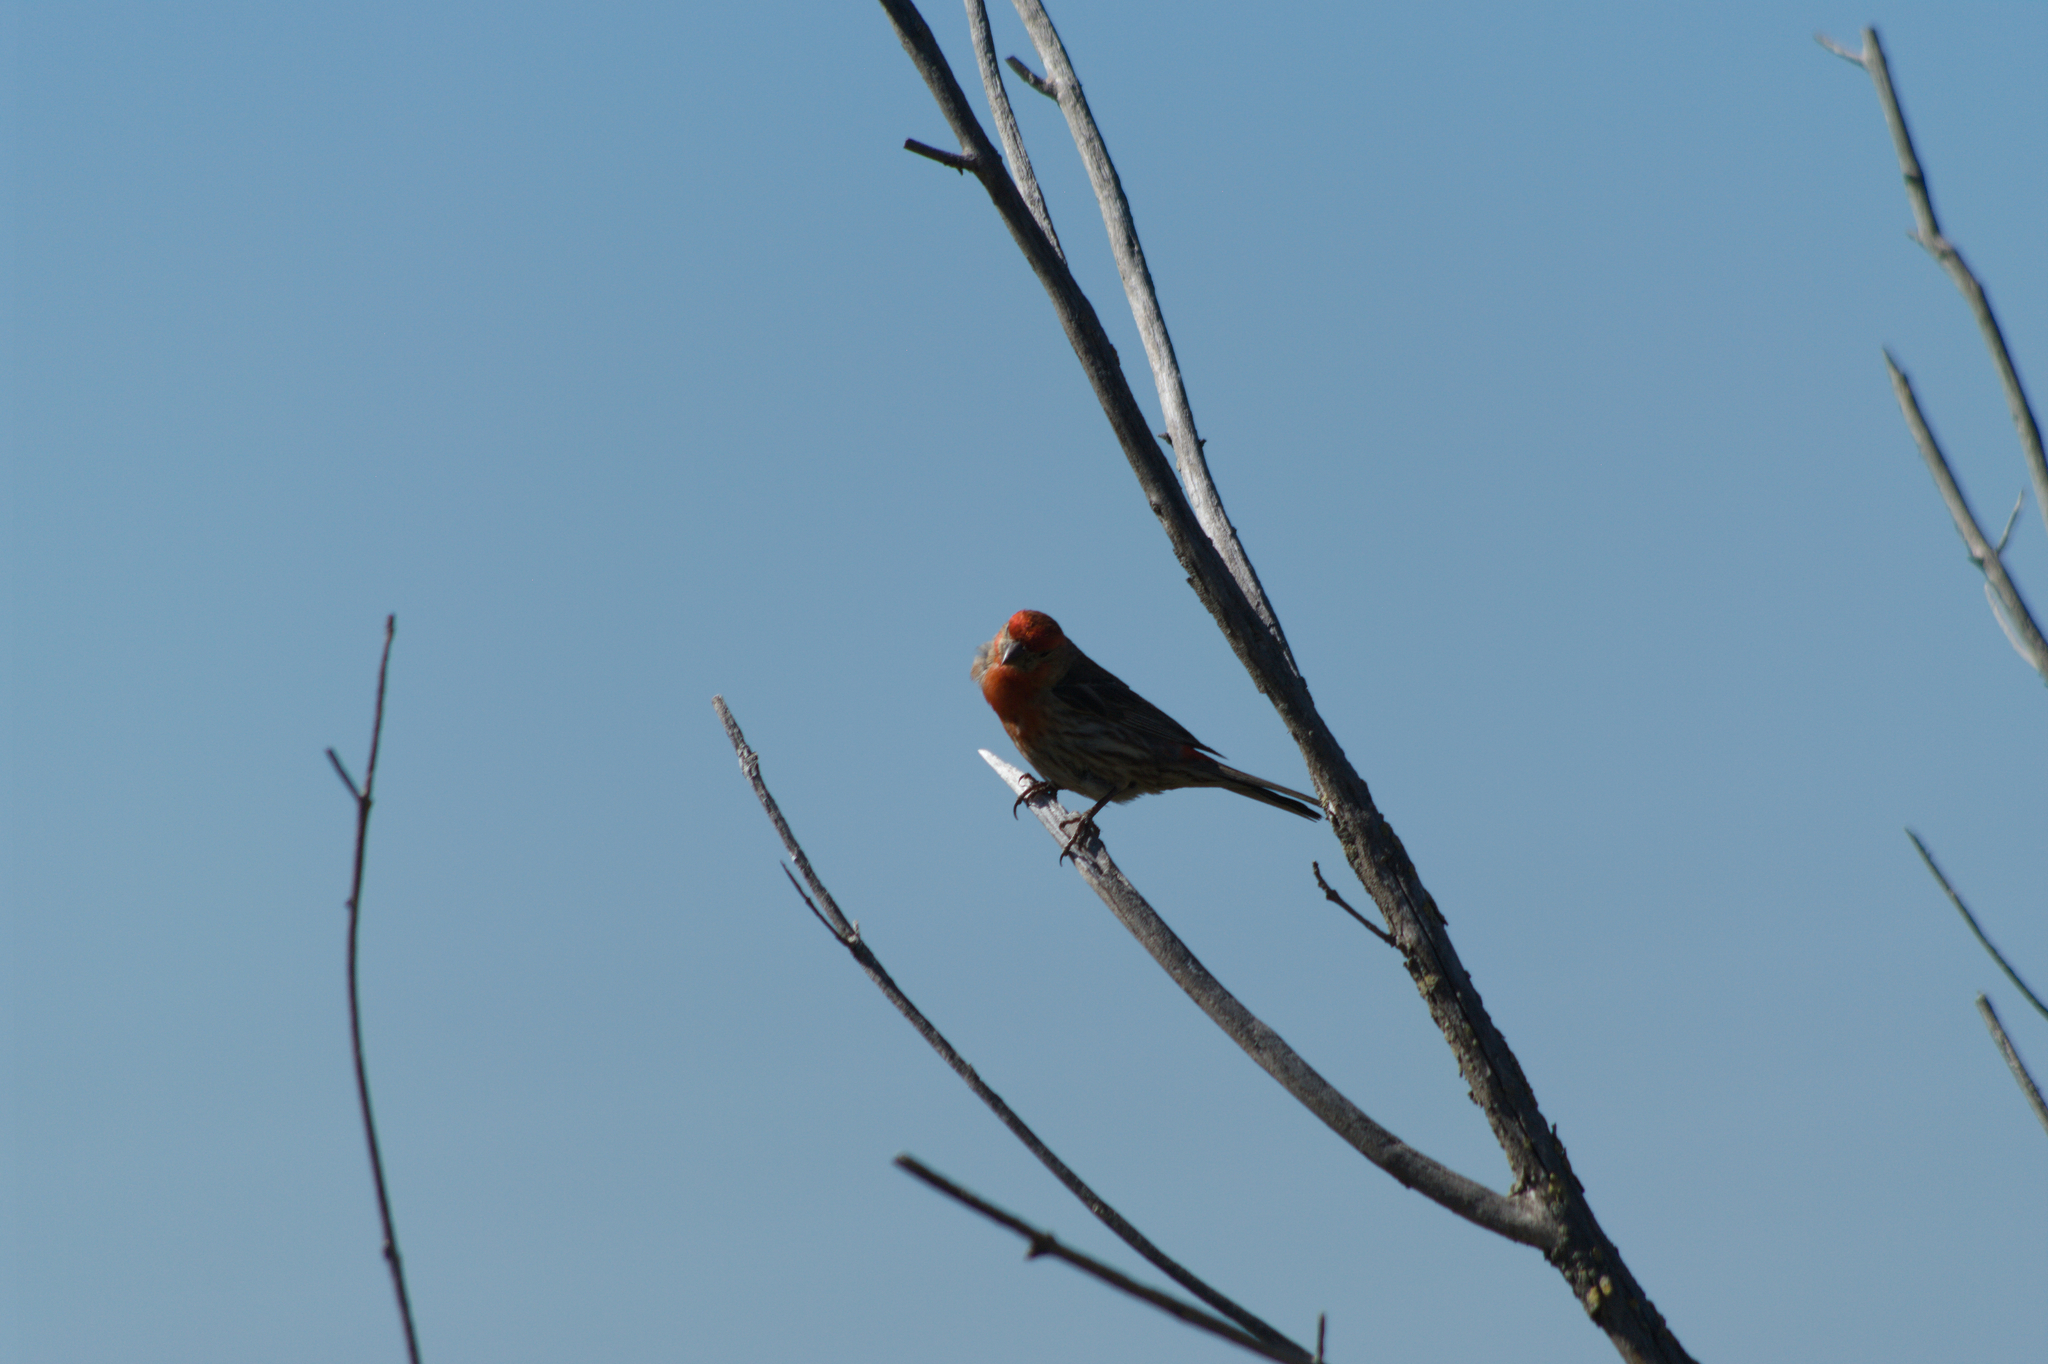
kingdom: Animalia
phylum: Chordata
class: Aves
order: Passeriformes
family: Fringillidae
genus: Haemorhous
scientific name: Haemorhous mexicanus
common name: House finch
